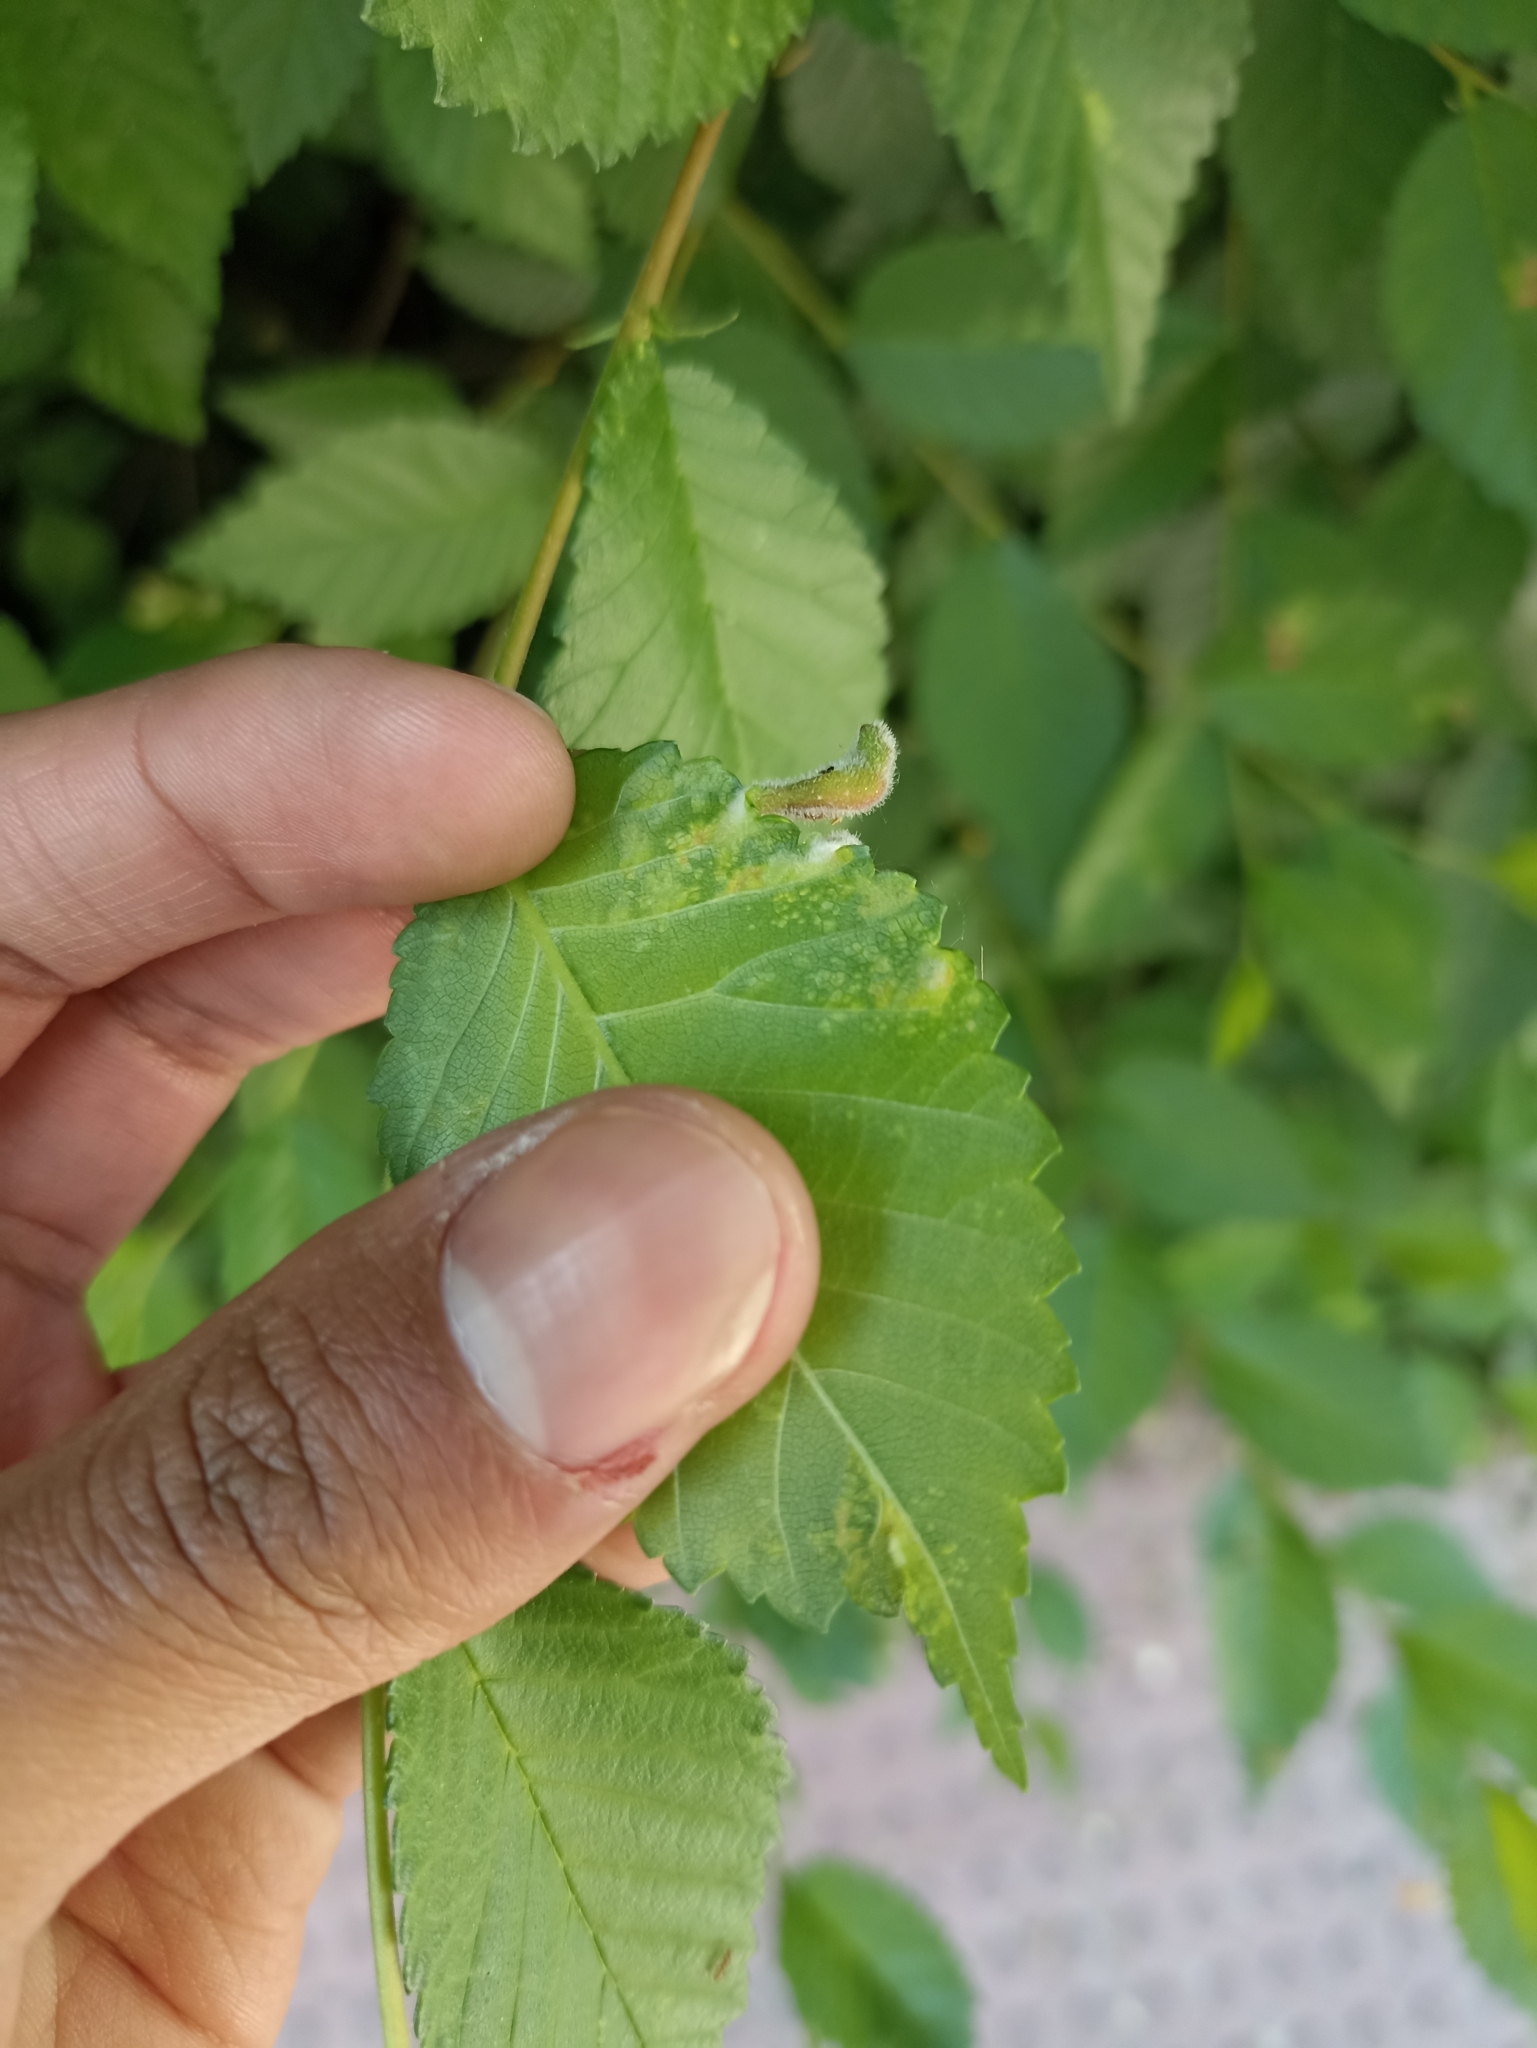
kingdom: Animalia
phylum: Arthropoda
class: Insecta
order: Hemiptera
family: Aphididae
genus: Tetraneura
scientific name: Tetraneura nigriabdominalis
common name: Aphid
